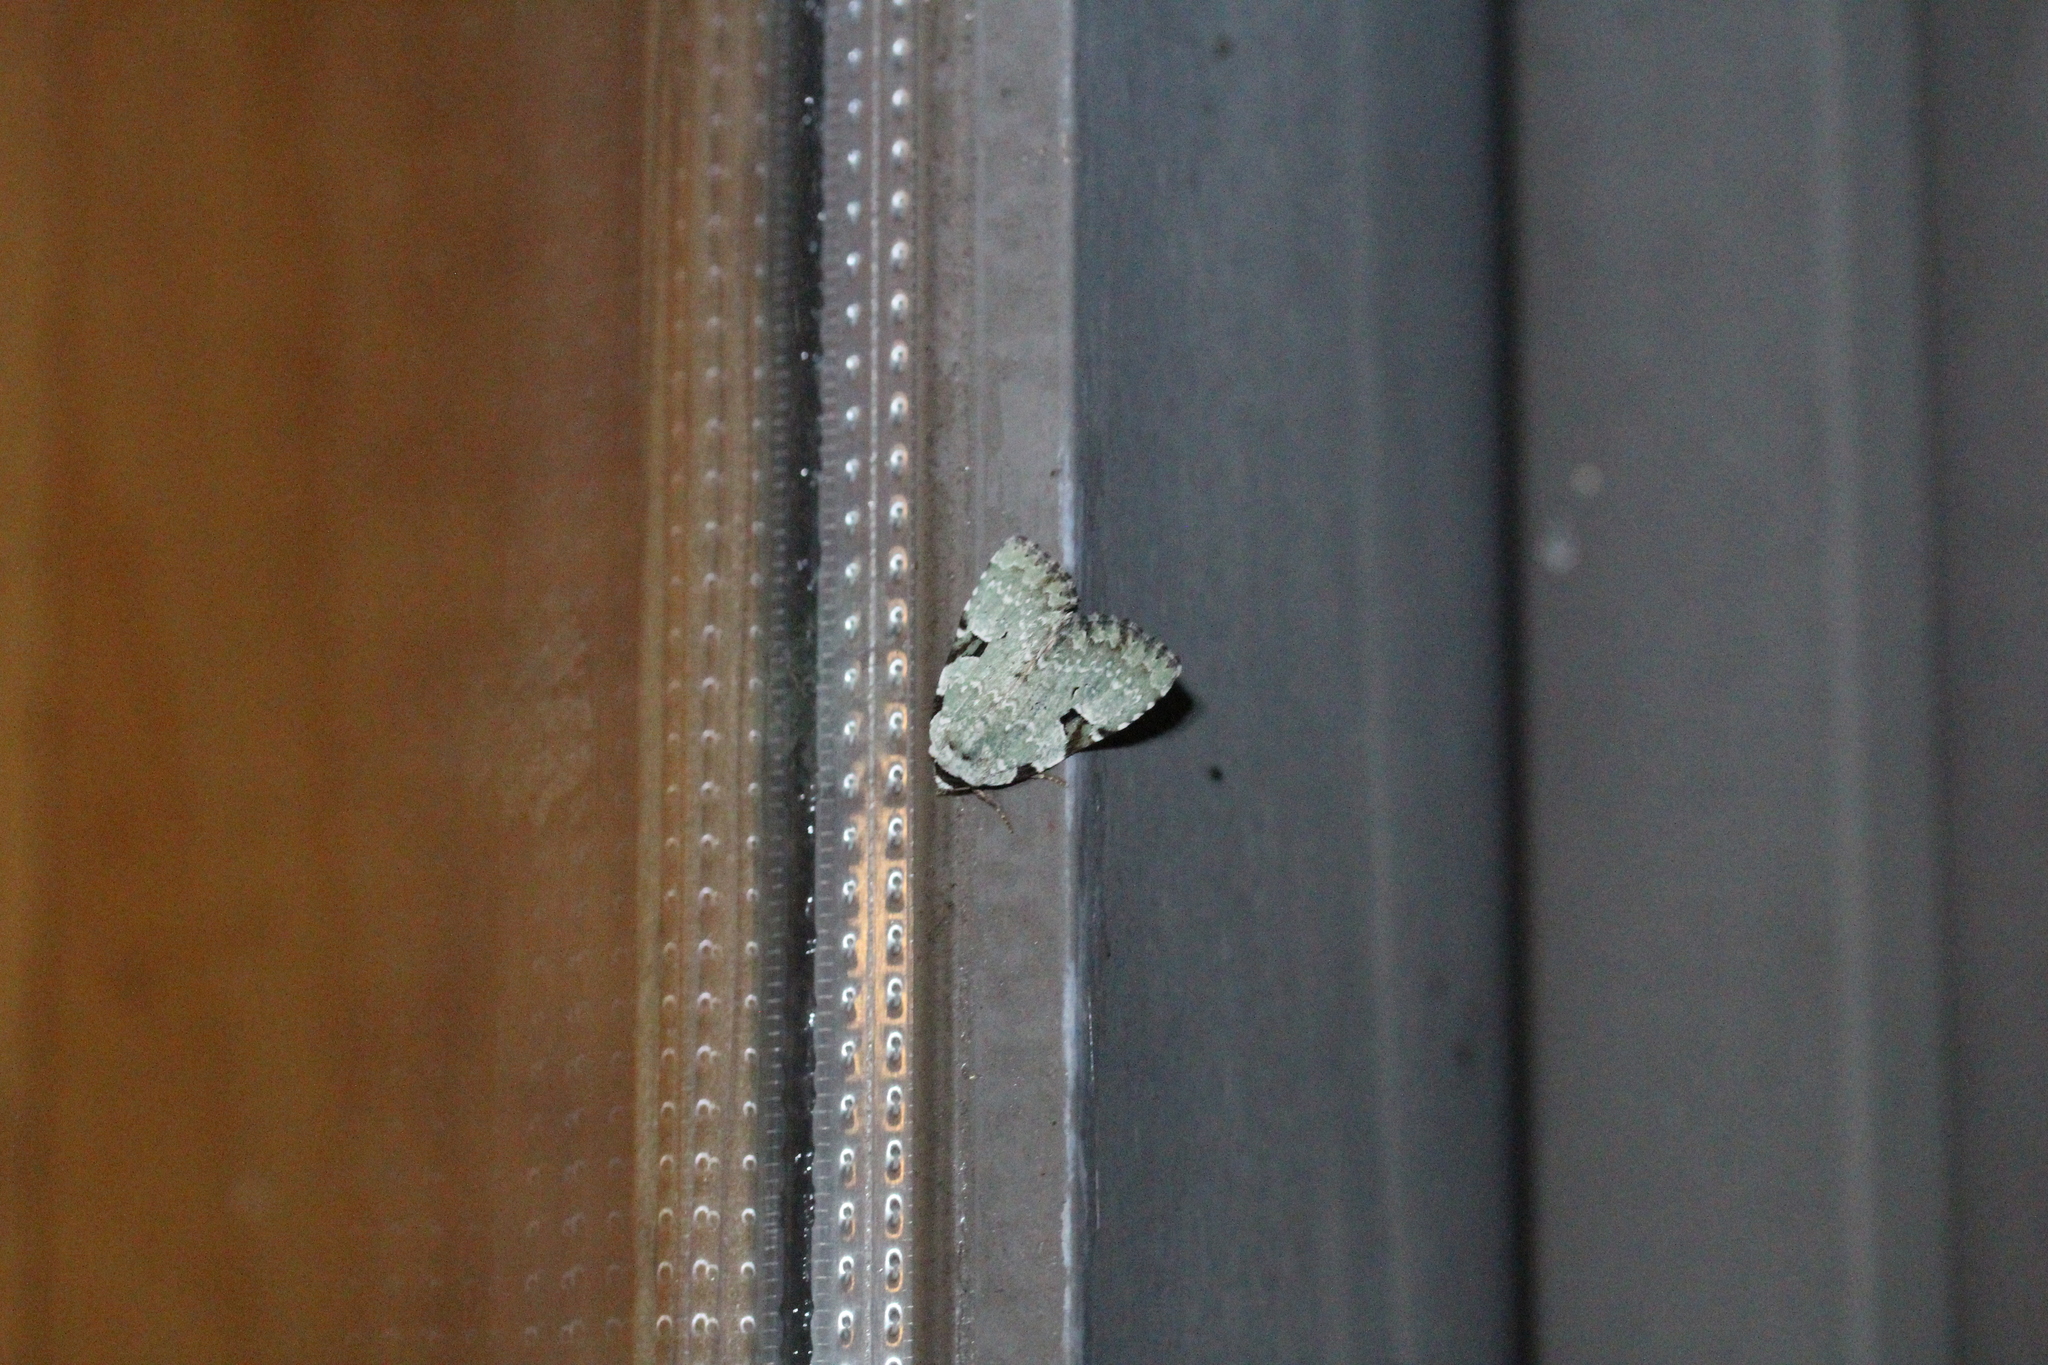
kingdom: Animalia
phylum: Arthropoda
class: Insecta
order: Lepidoptera
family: Noctuidae
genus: Leuconycta
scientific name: Leuconycta diphteroides
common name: Green leuconycta moth
